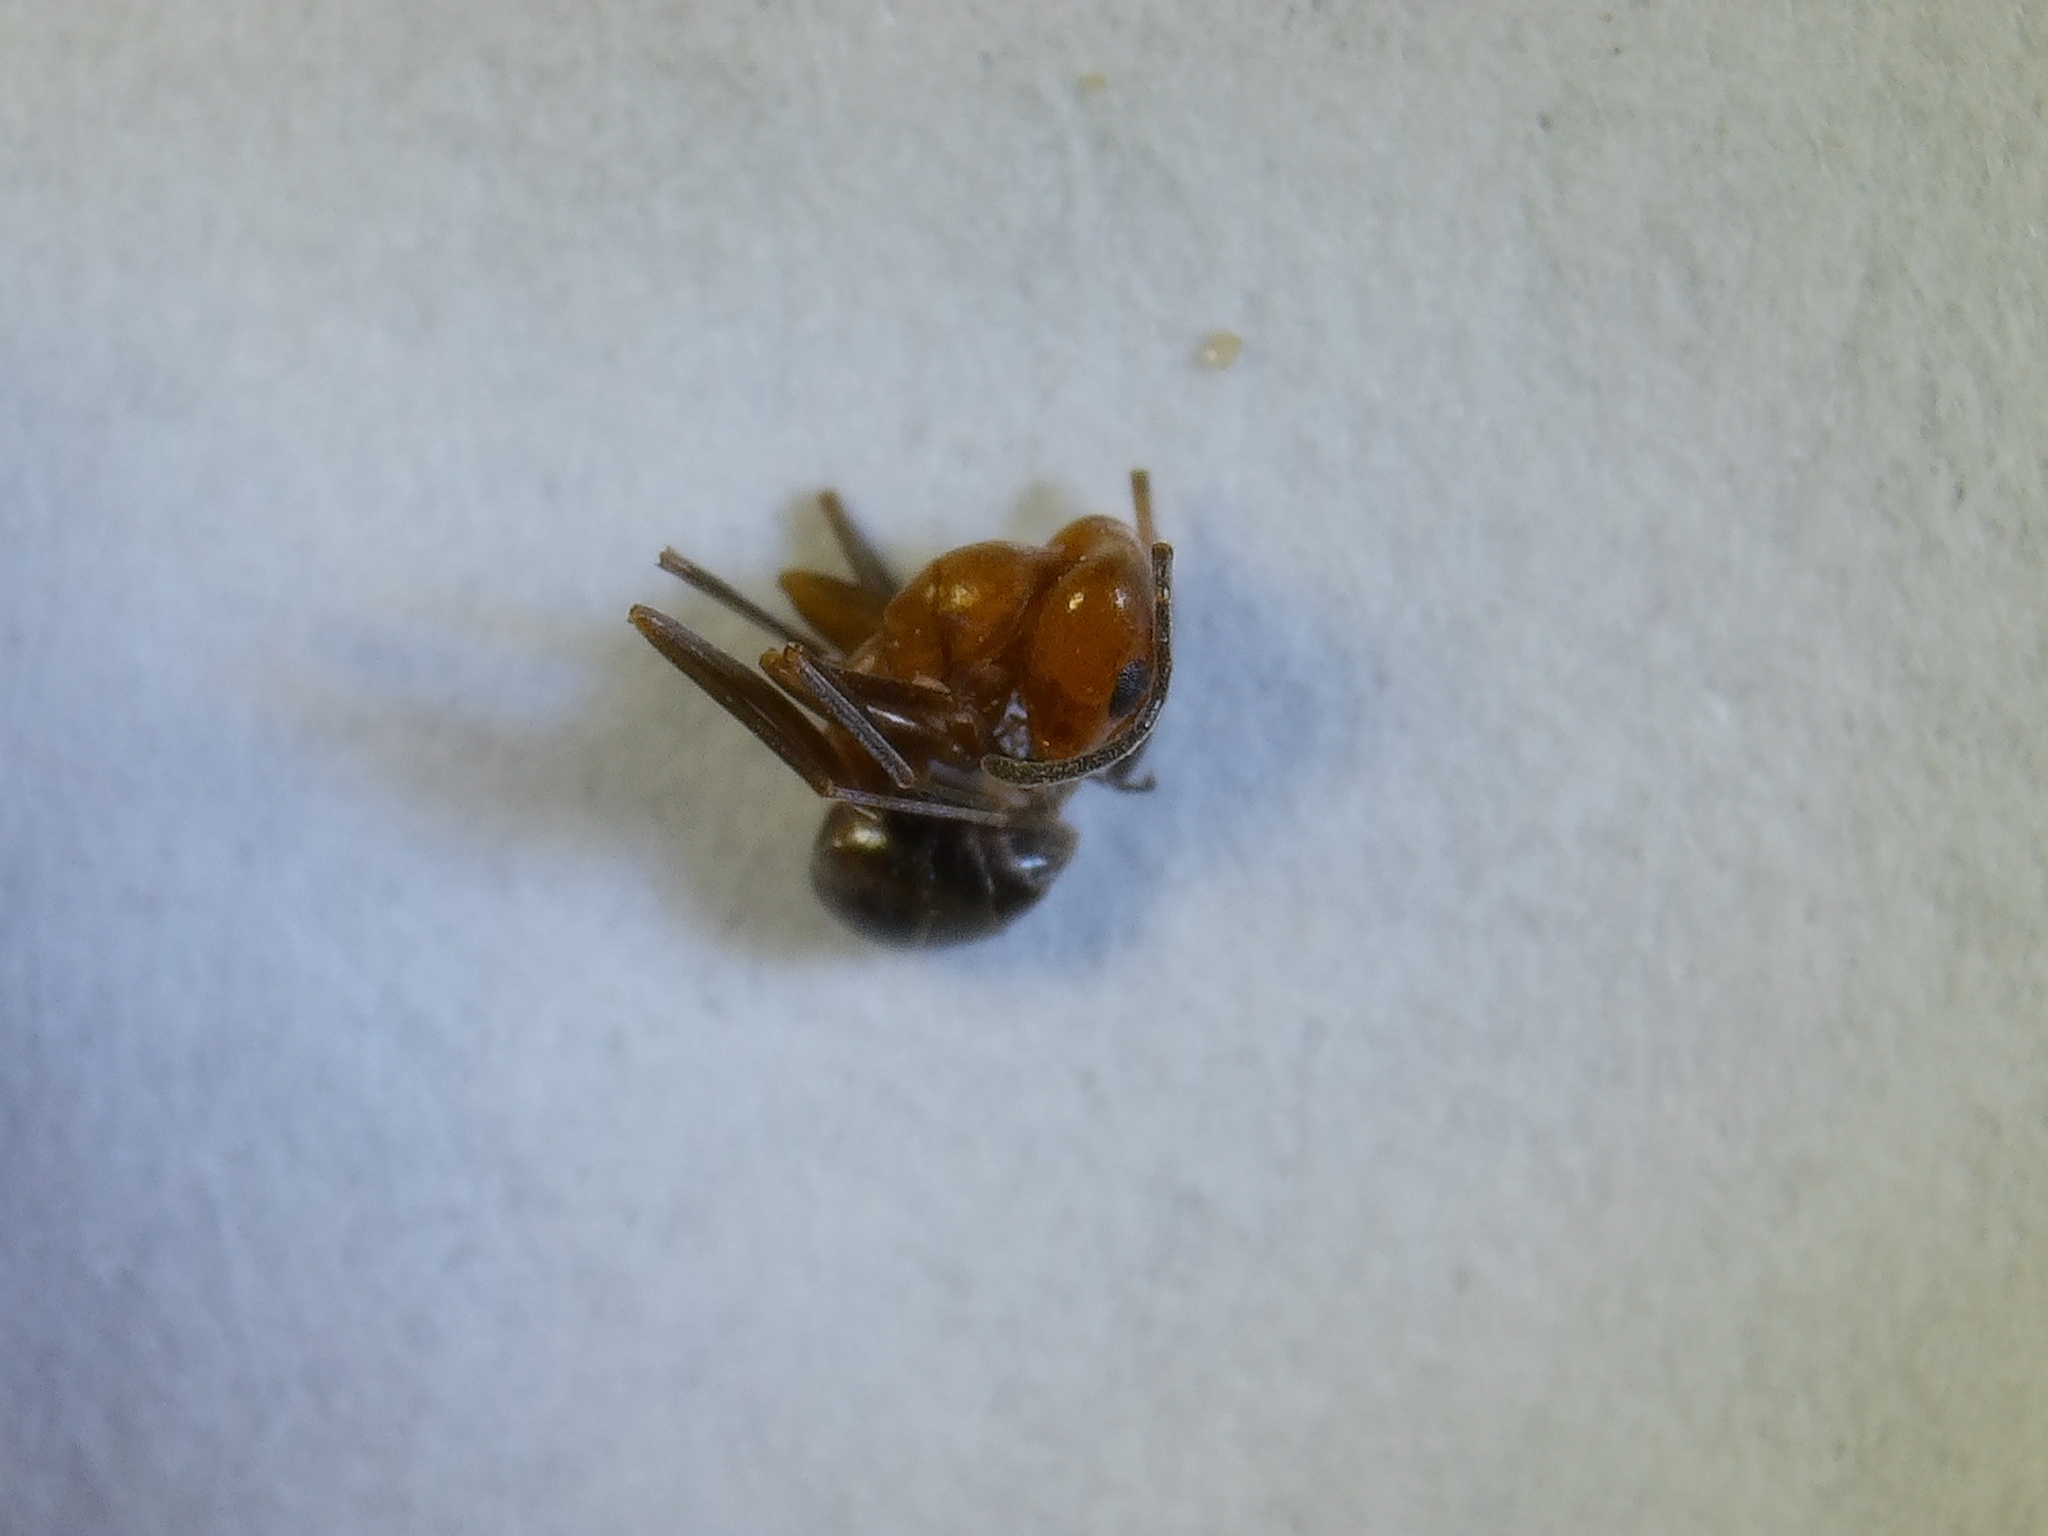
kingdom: Animalia
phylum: Arthropoda
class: Insecta
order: Hymenoptera
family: Formicidae
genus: Dorymyrmex
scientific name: Dorymyrmex bicolor
